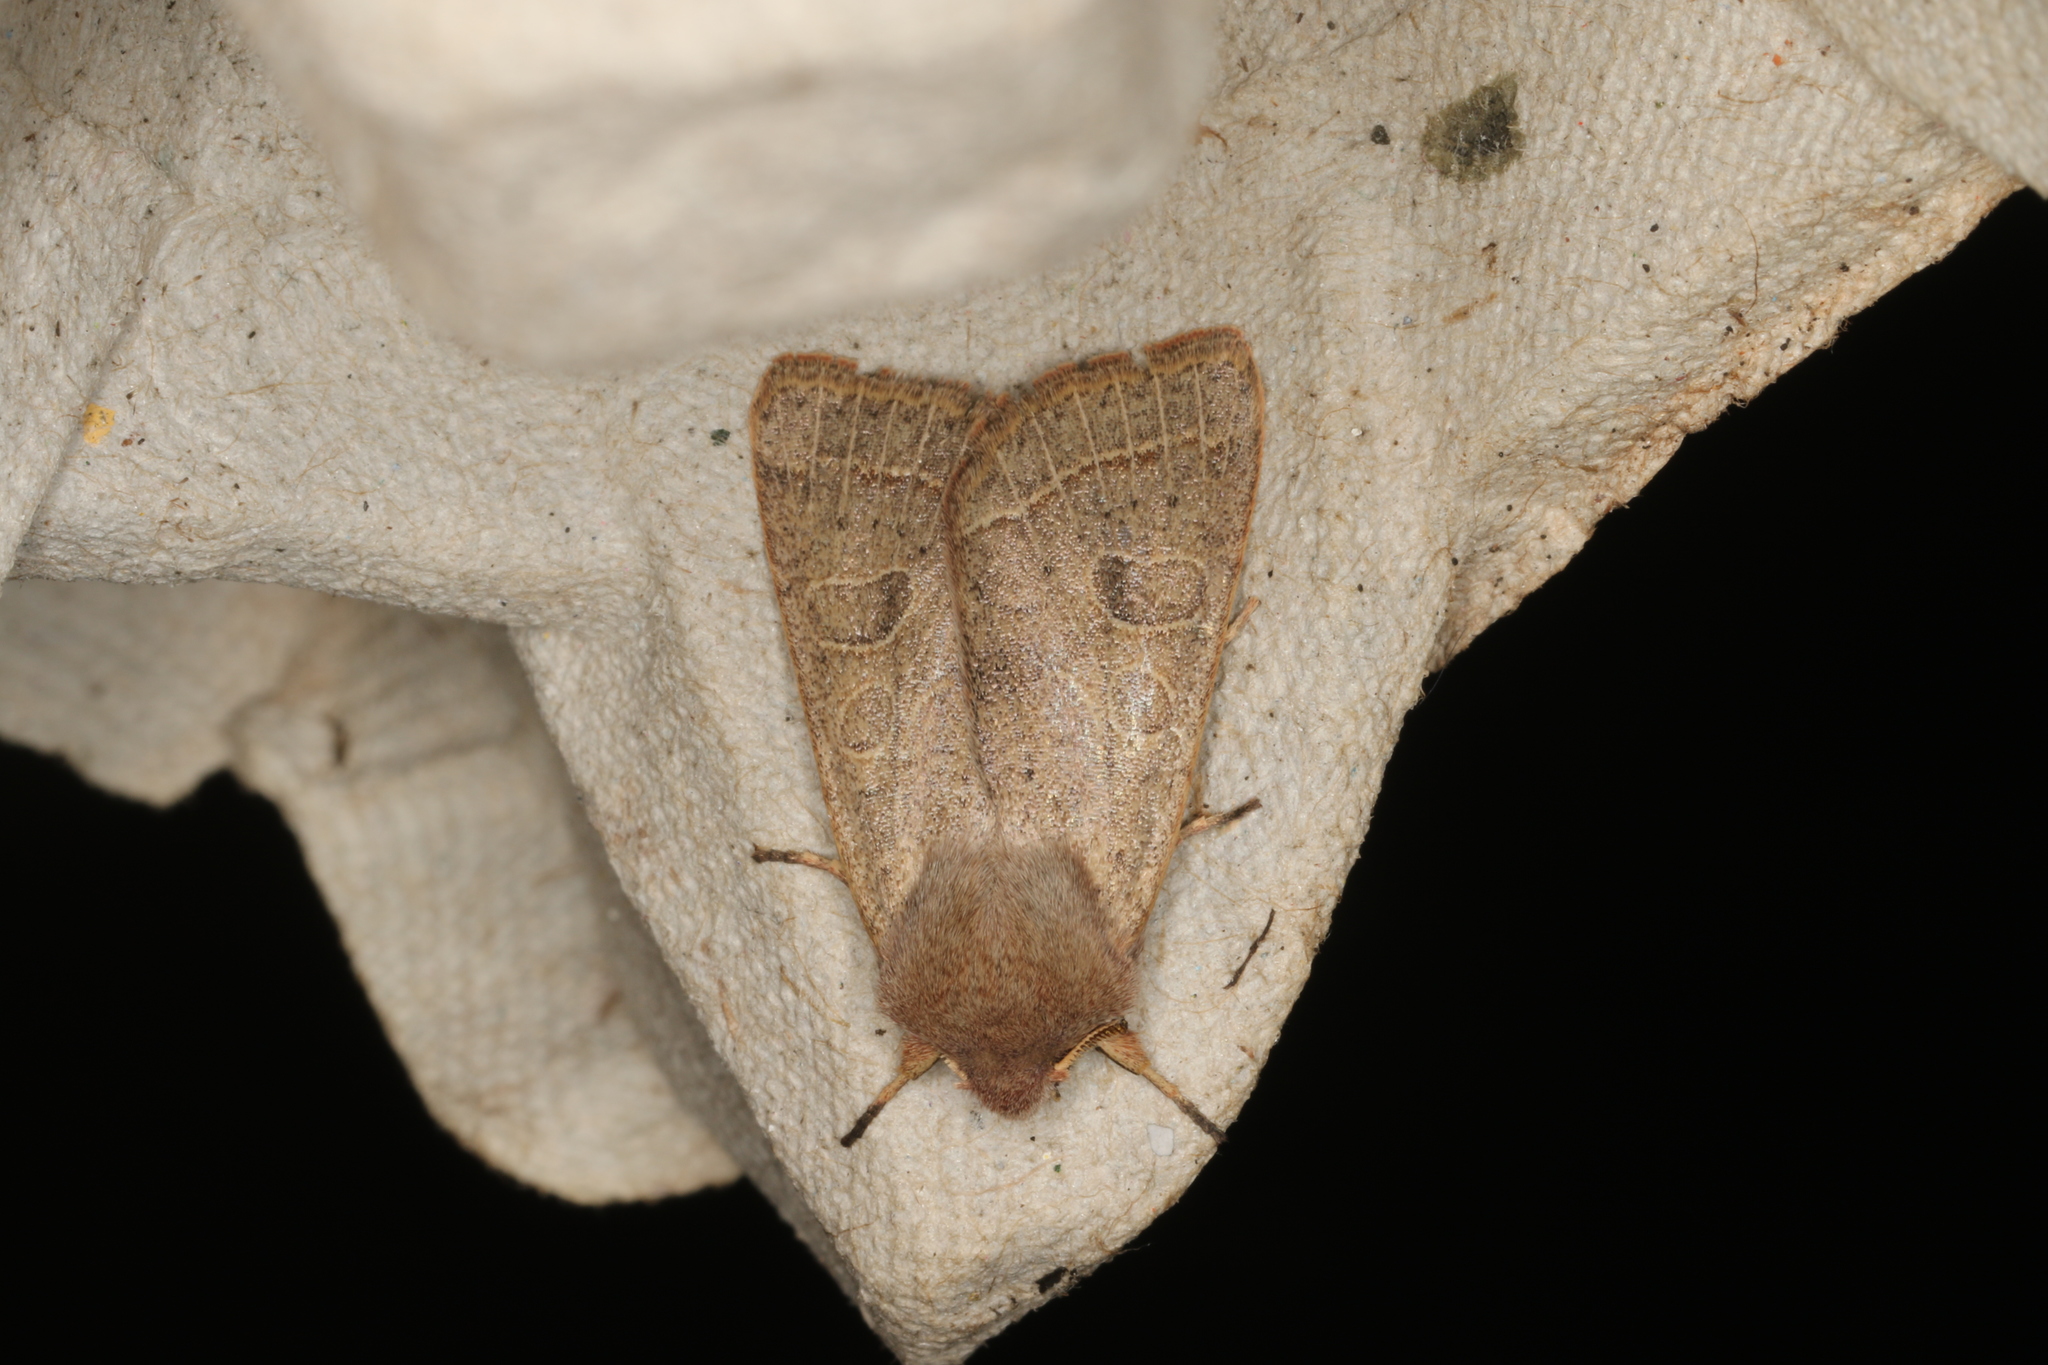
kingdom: Animalia
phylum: Arthropoda
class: Insecta
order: Lepidoptera
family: Noctuidae
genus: Orthosia
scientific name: Orthosia cerasi
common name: Common quaker
